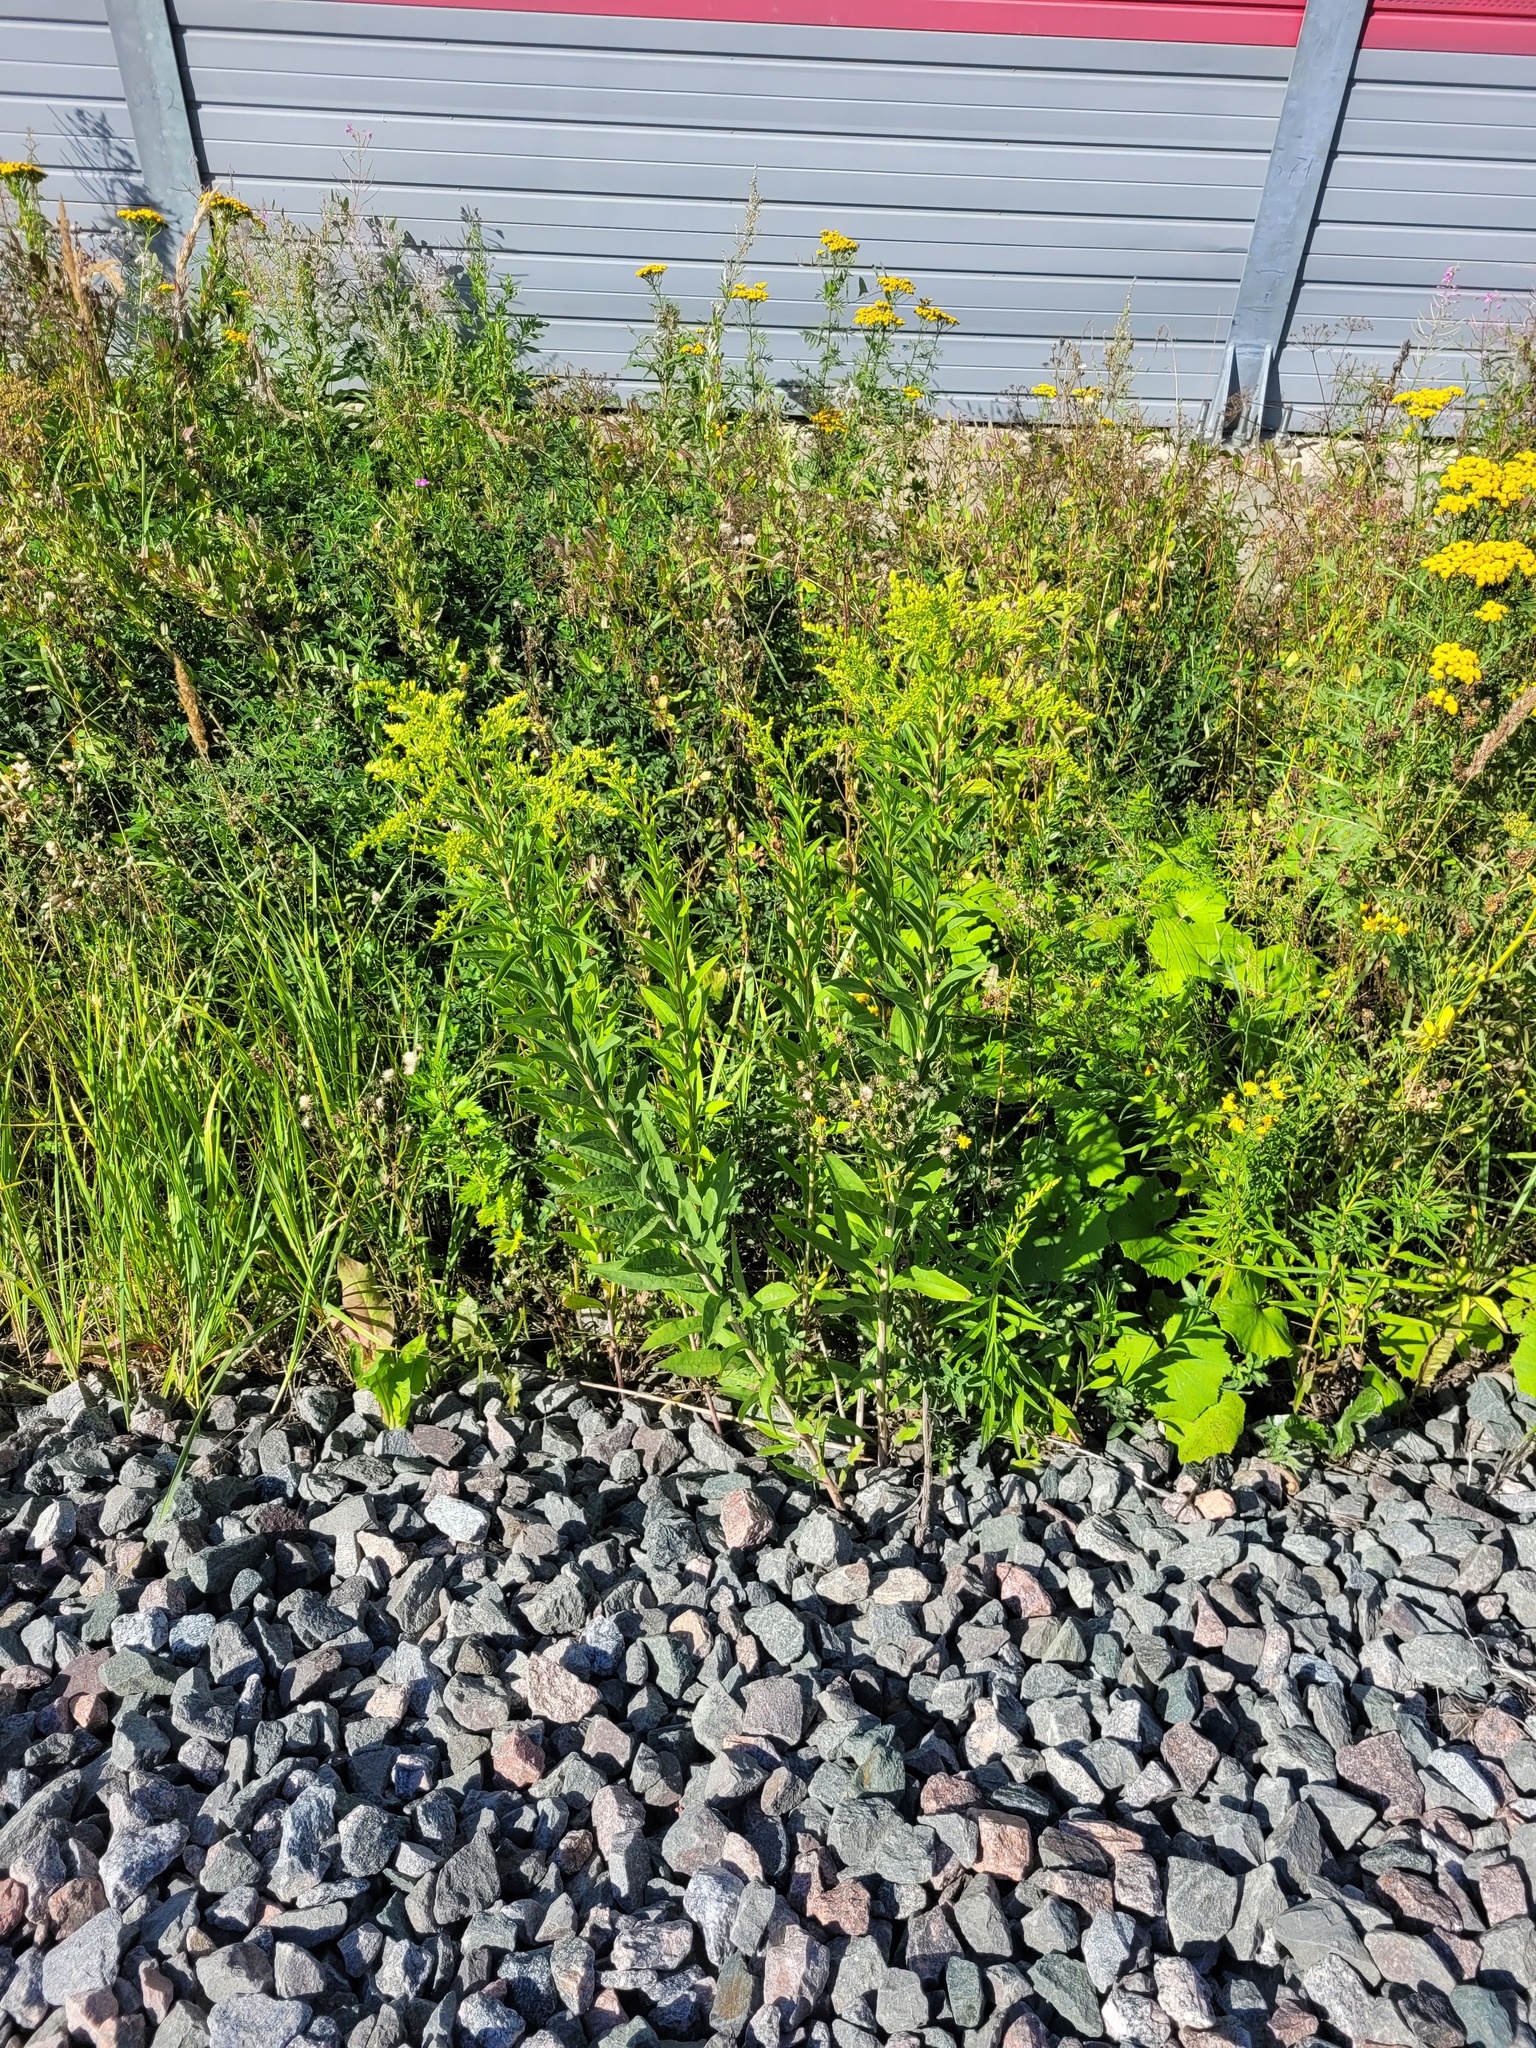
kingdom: Plantae
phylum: Tracheophyta
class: Magnoliopsida
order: Asterales
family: Asteraceae
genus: Solidago
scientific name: Solidago gigantea
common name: Giant goldenrod
